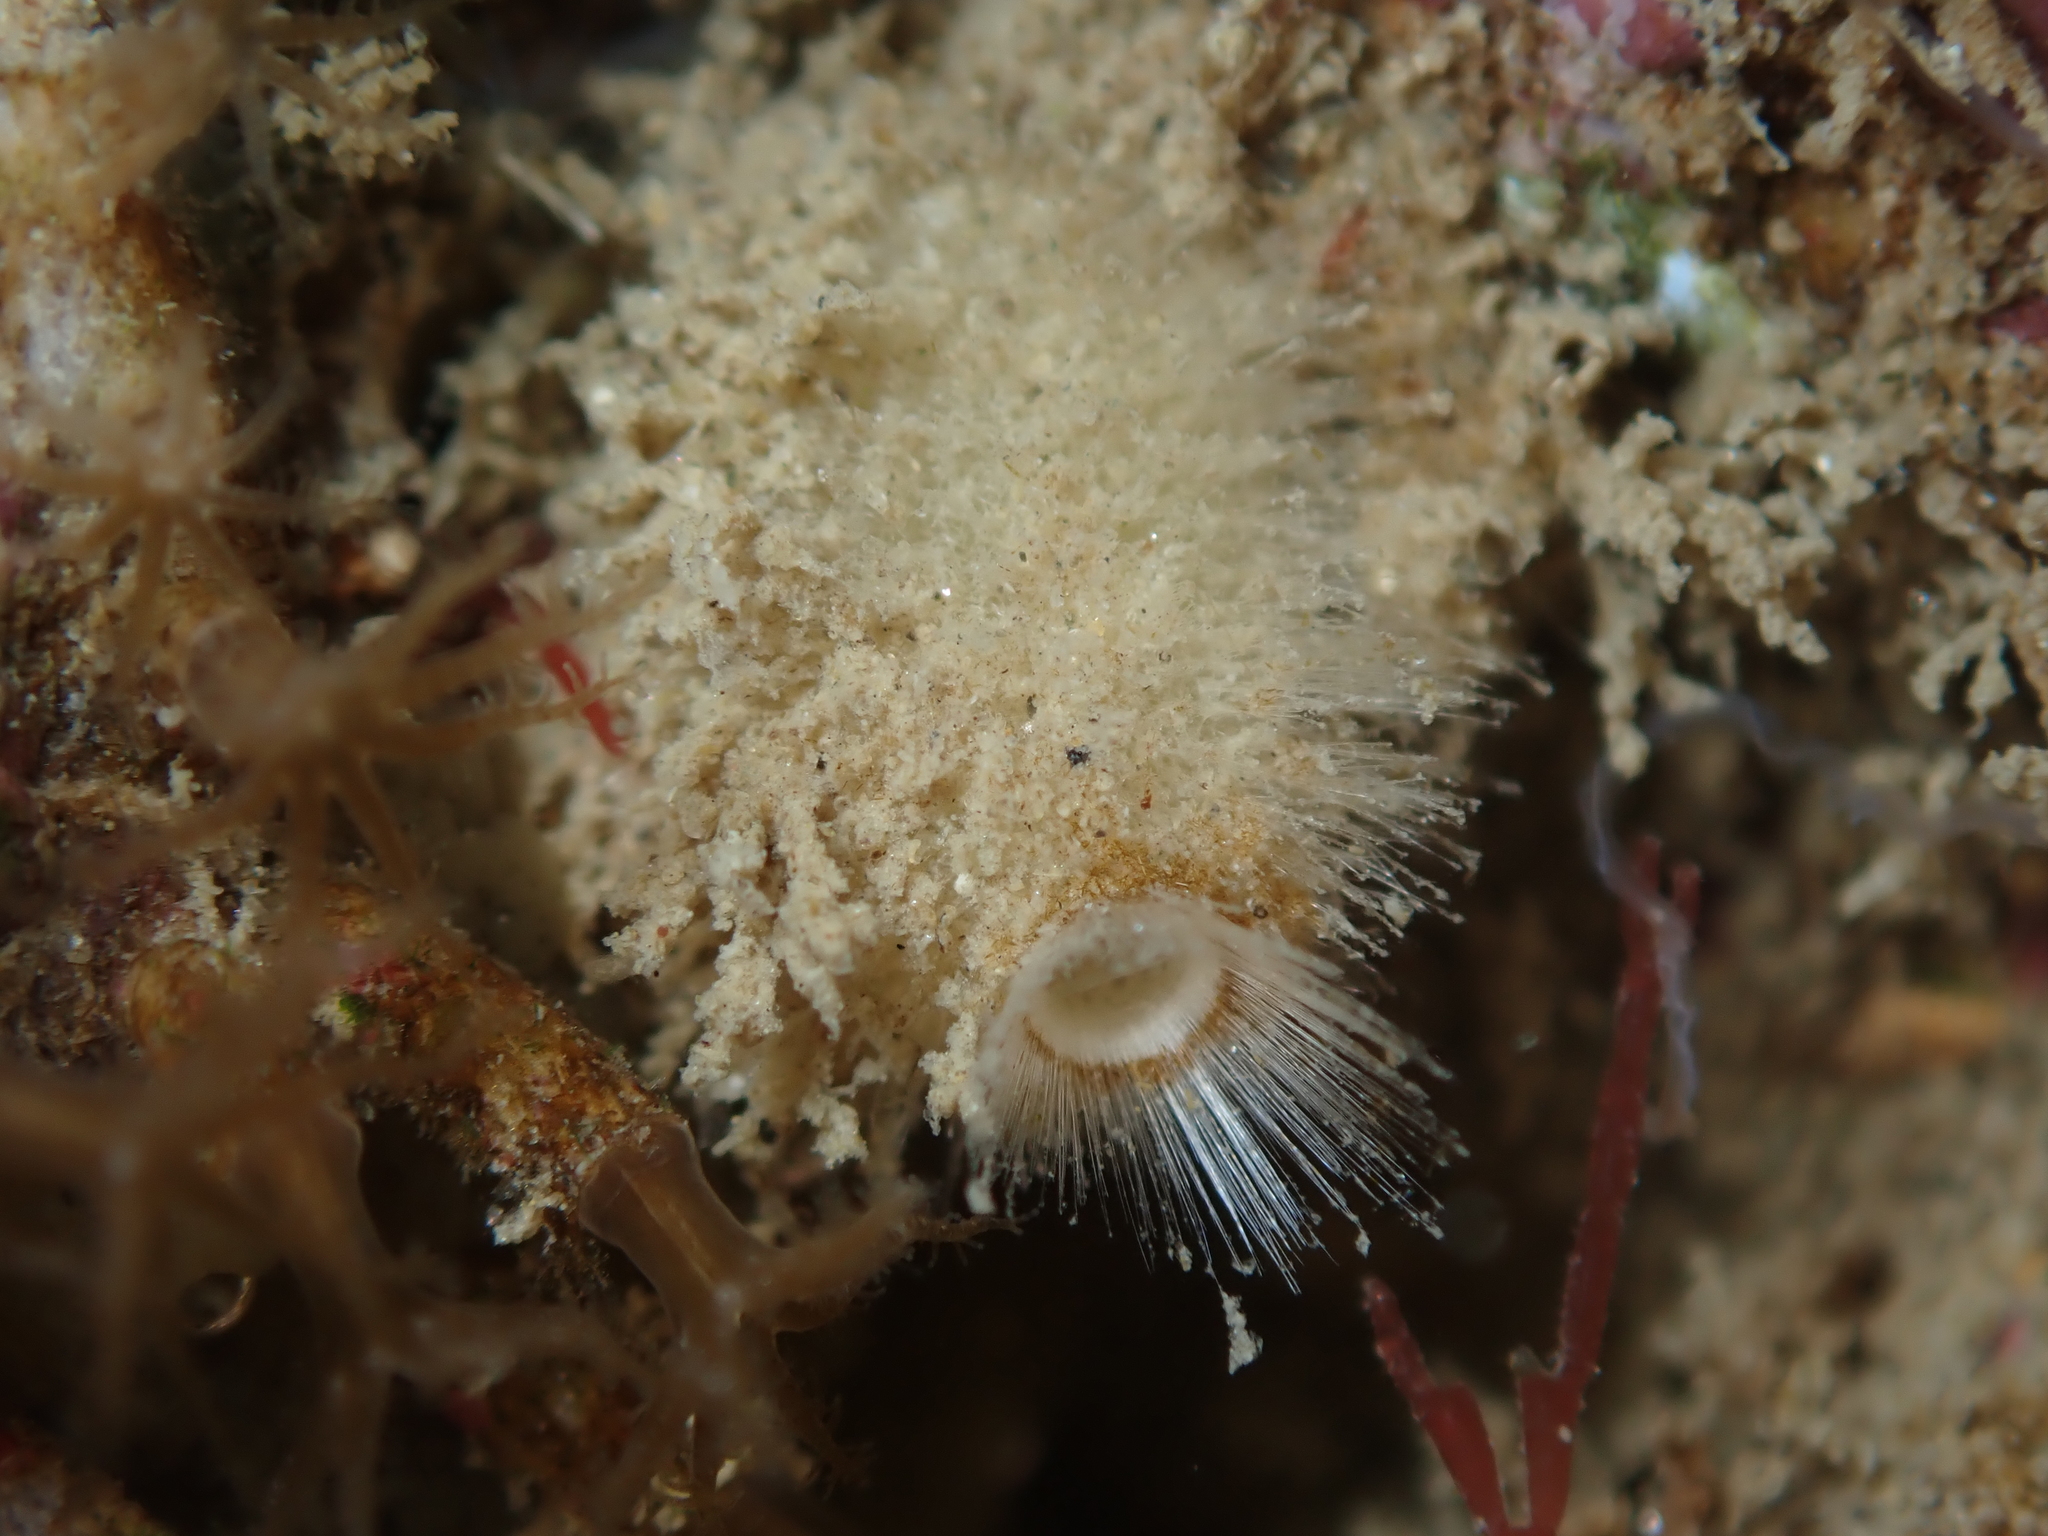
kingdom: Animalia
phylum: Cnidaria
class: Anthozoa
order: Malacalcyonacea
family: Clavulariidae
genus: Clavularia
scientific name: Clavularia novaezealandiae
